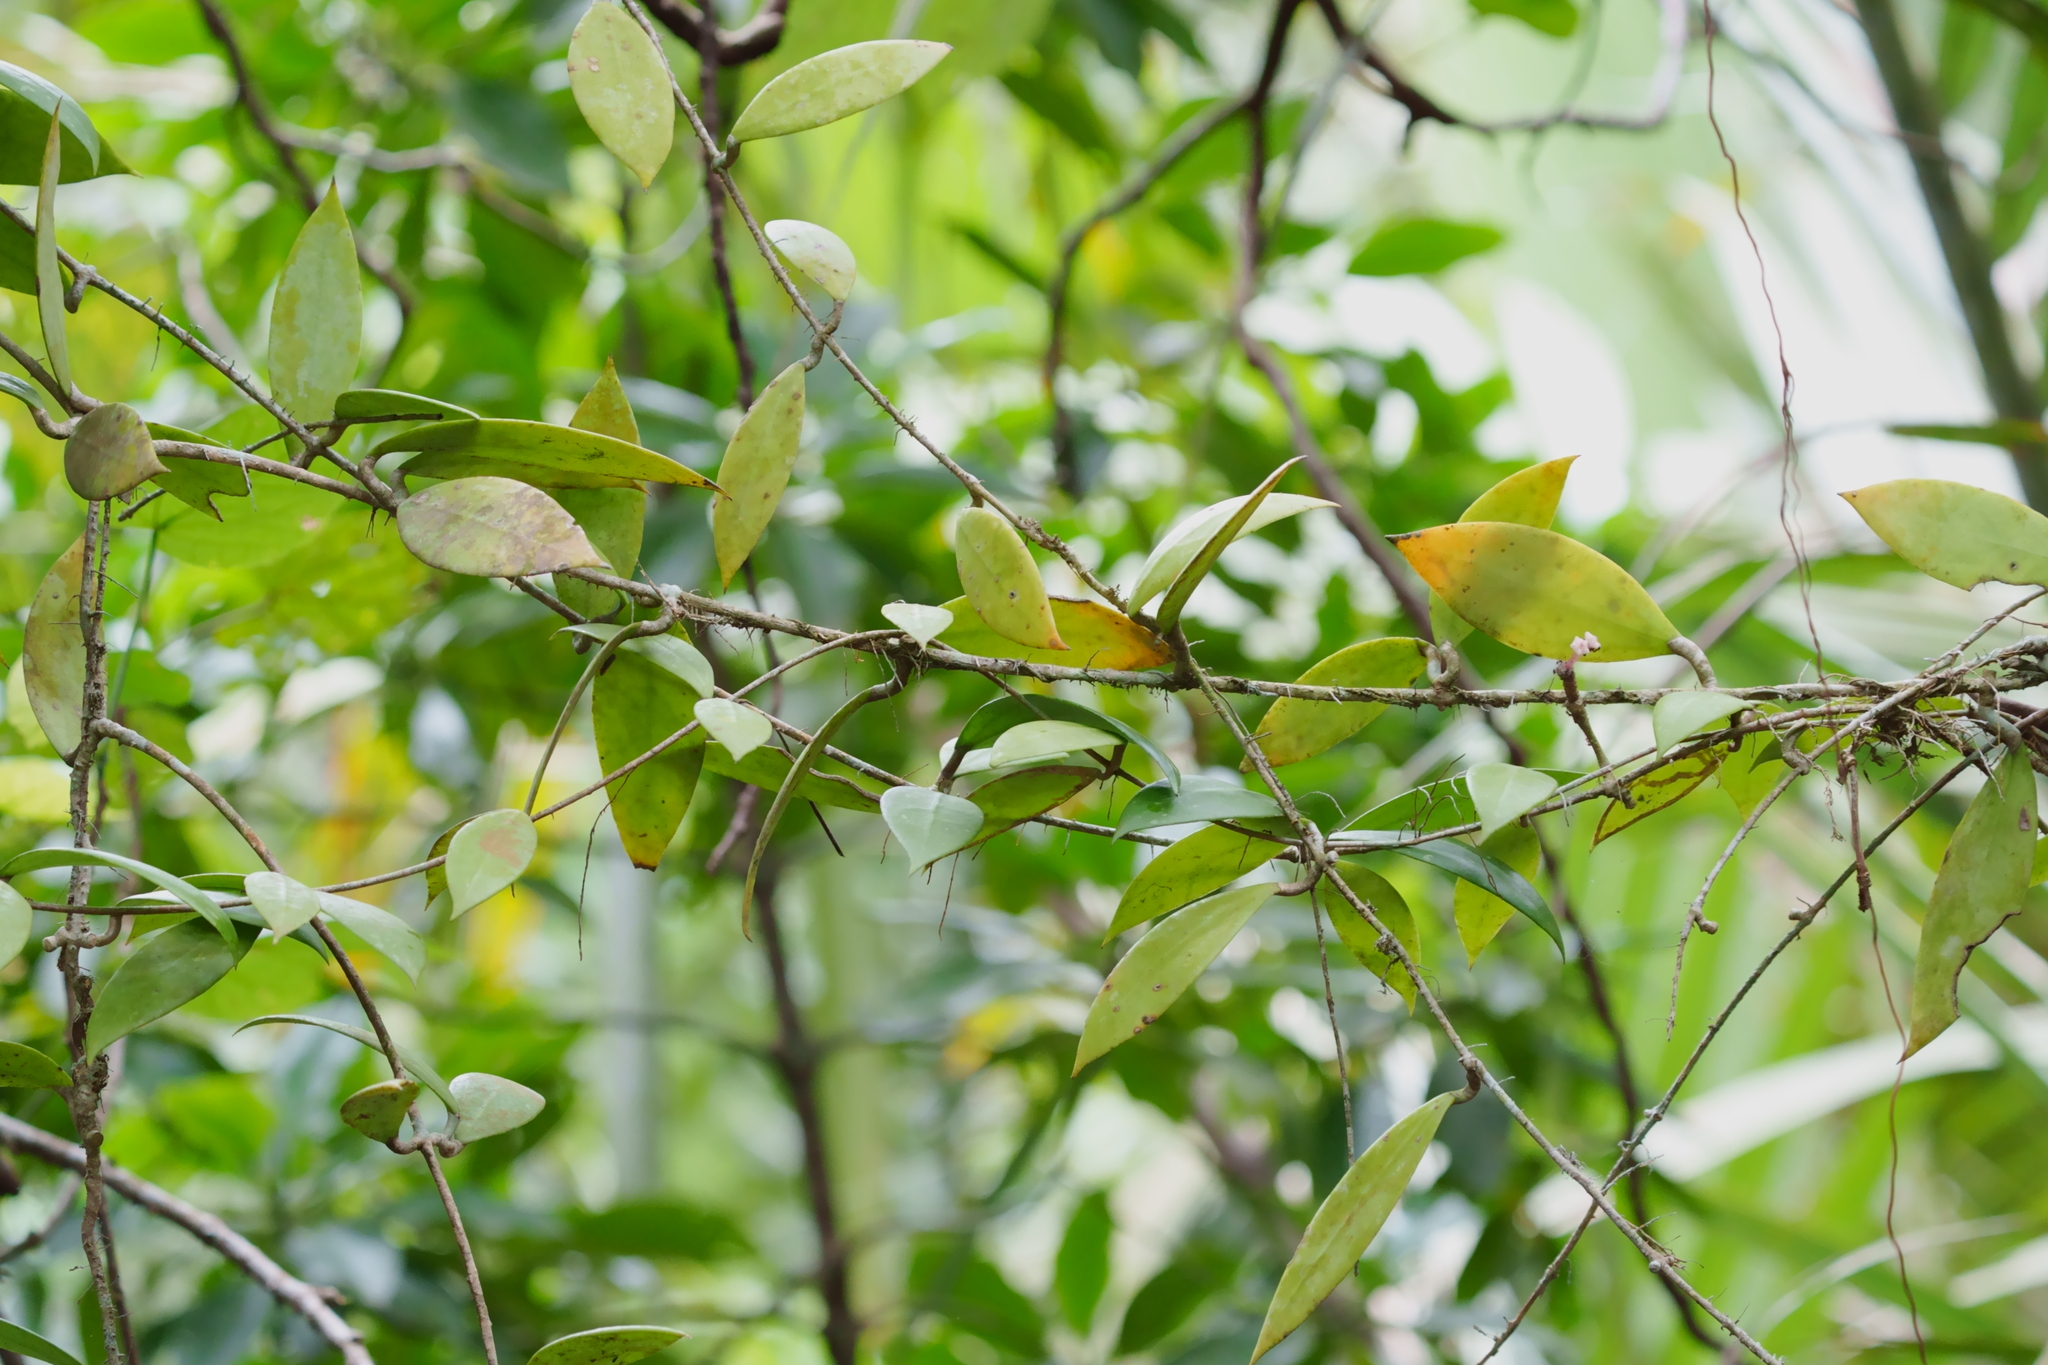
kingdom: Plantae
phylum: Tracheophyta
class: Magnoliopsida
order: Gentianales
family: Apocynaceae
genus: Hoya
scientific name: Hoya verticillata
